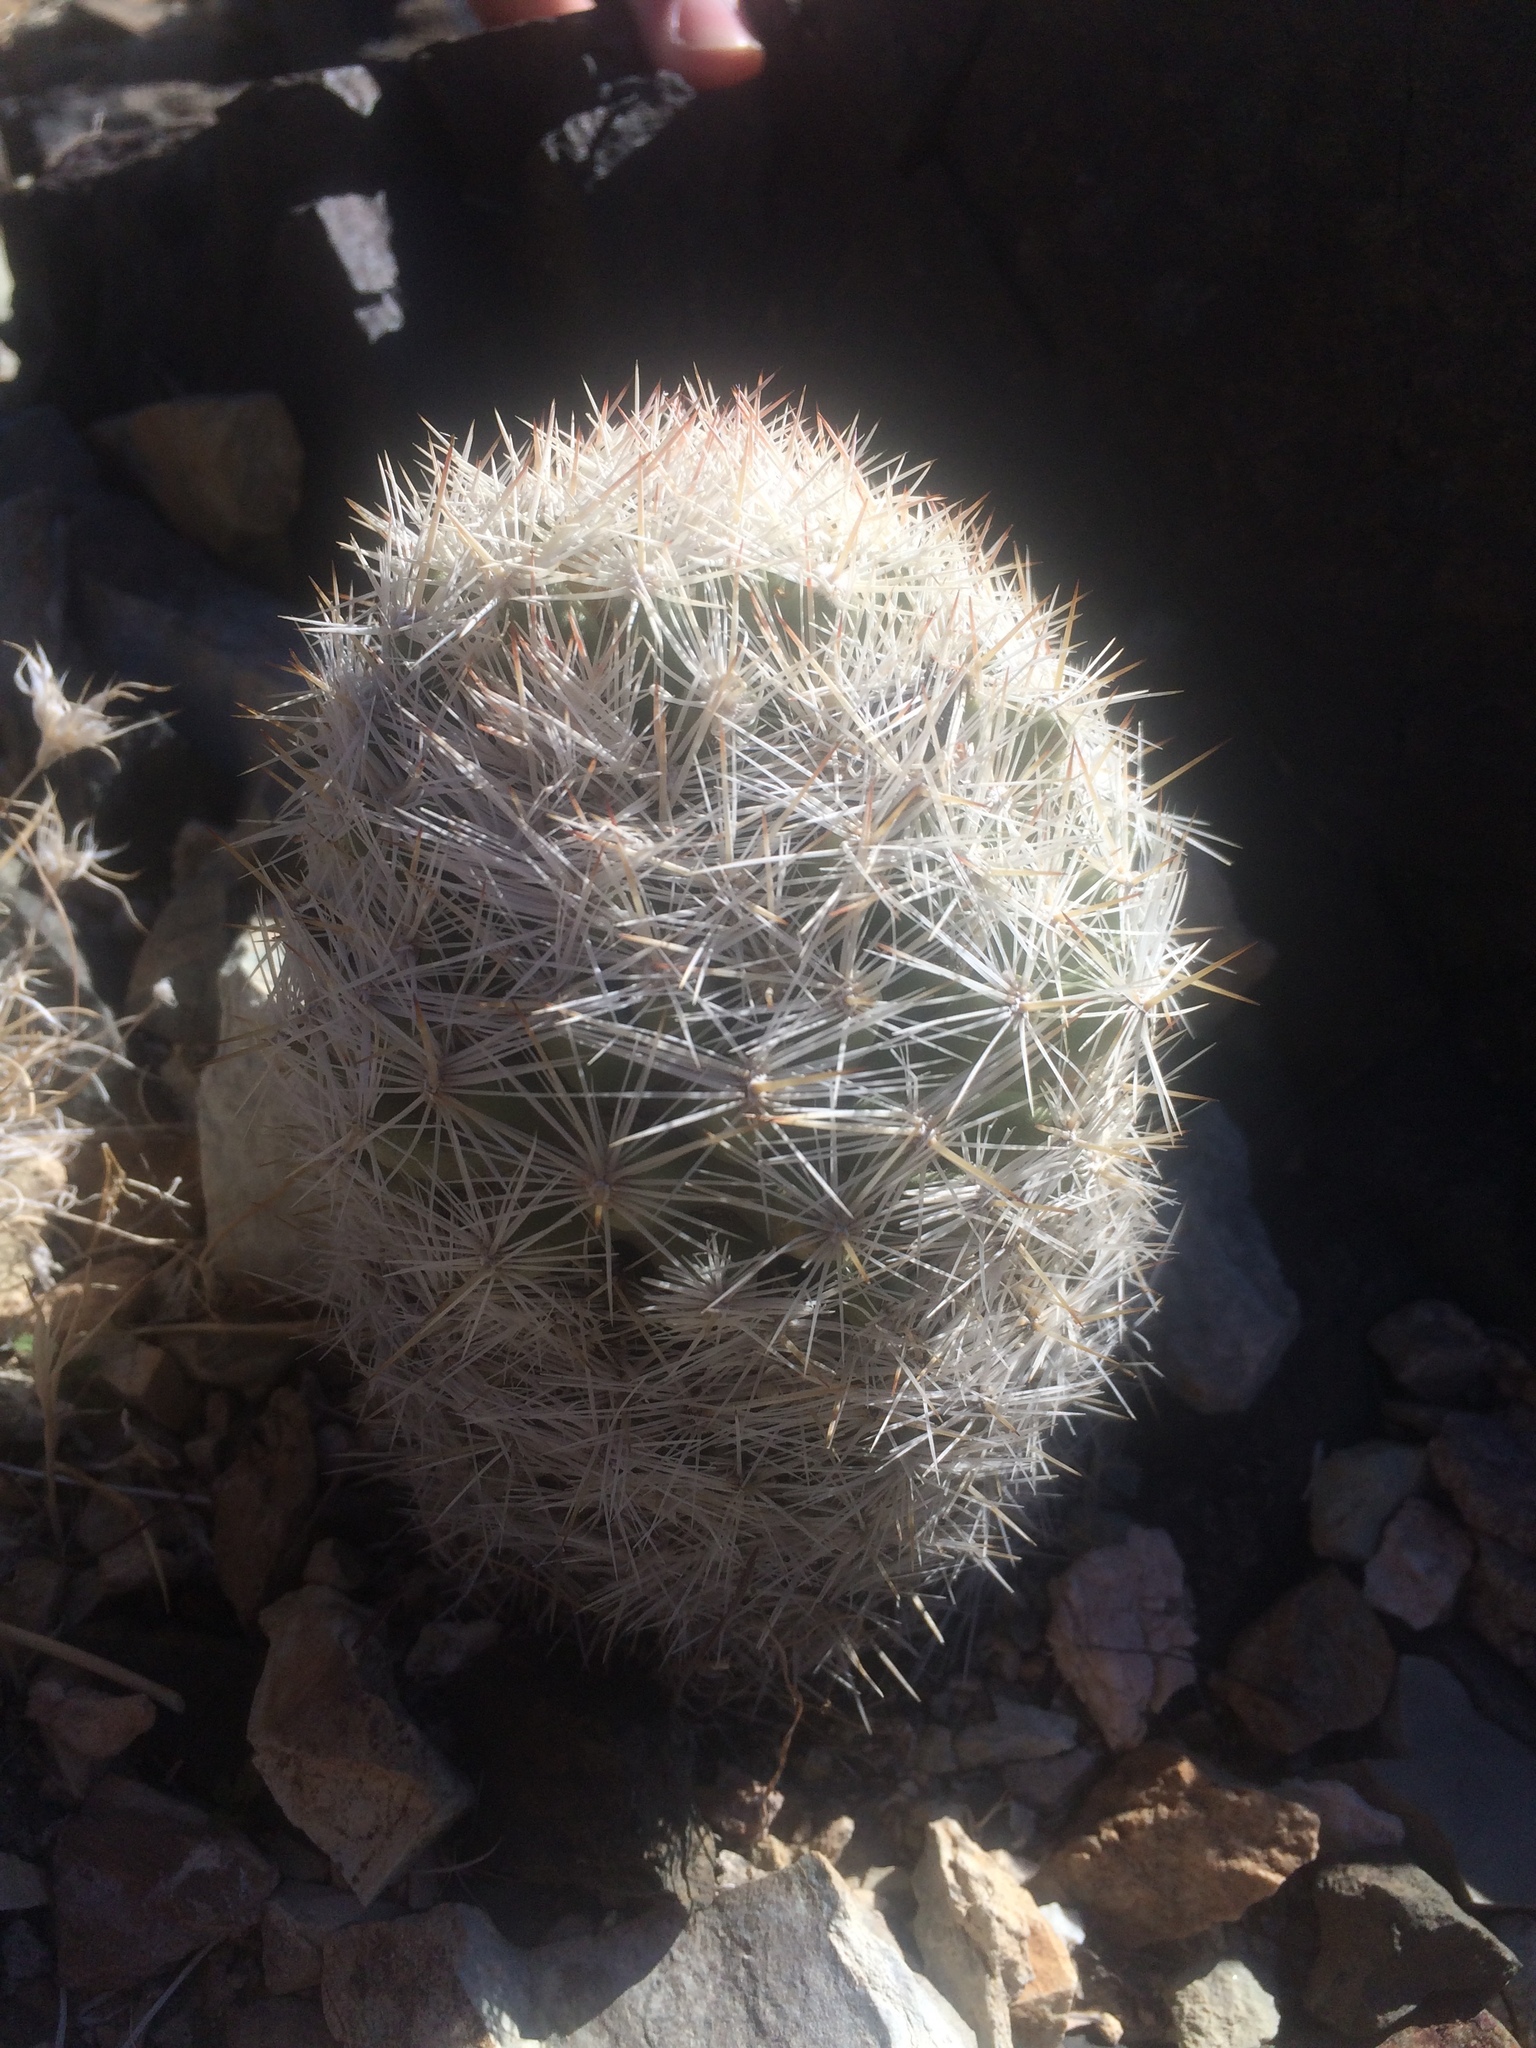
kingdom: Plantae
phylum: Tracheophyta
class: Magnoliopsida
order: Caryophyllales
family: Cactaceae
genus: Pelecyphora
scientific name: Pelecyphora vivipara
